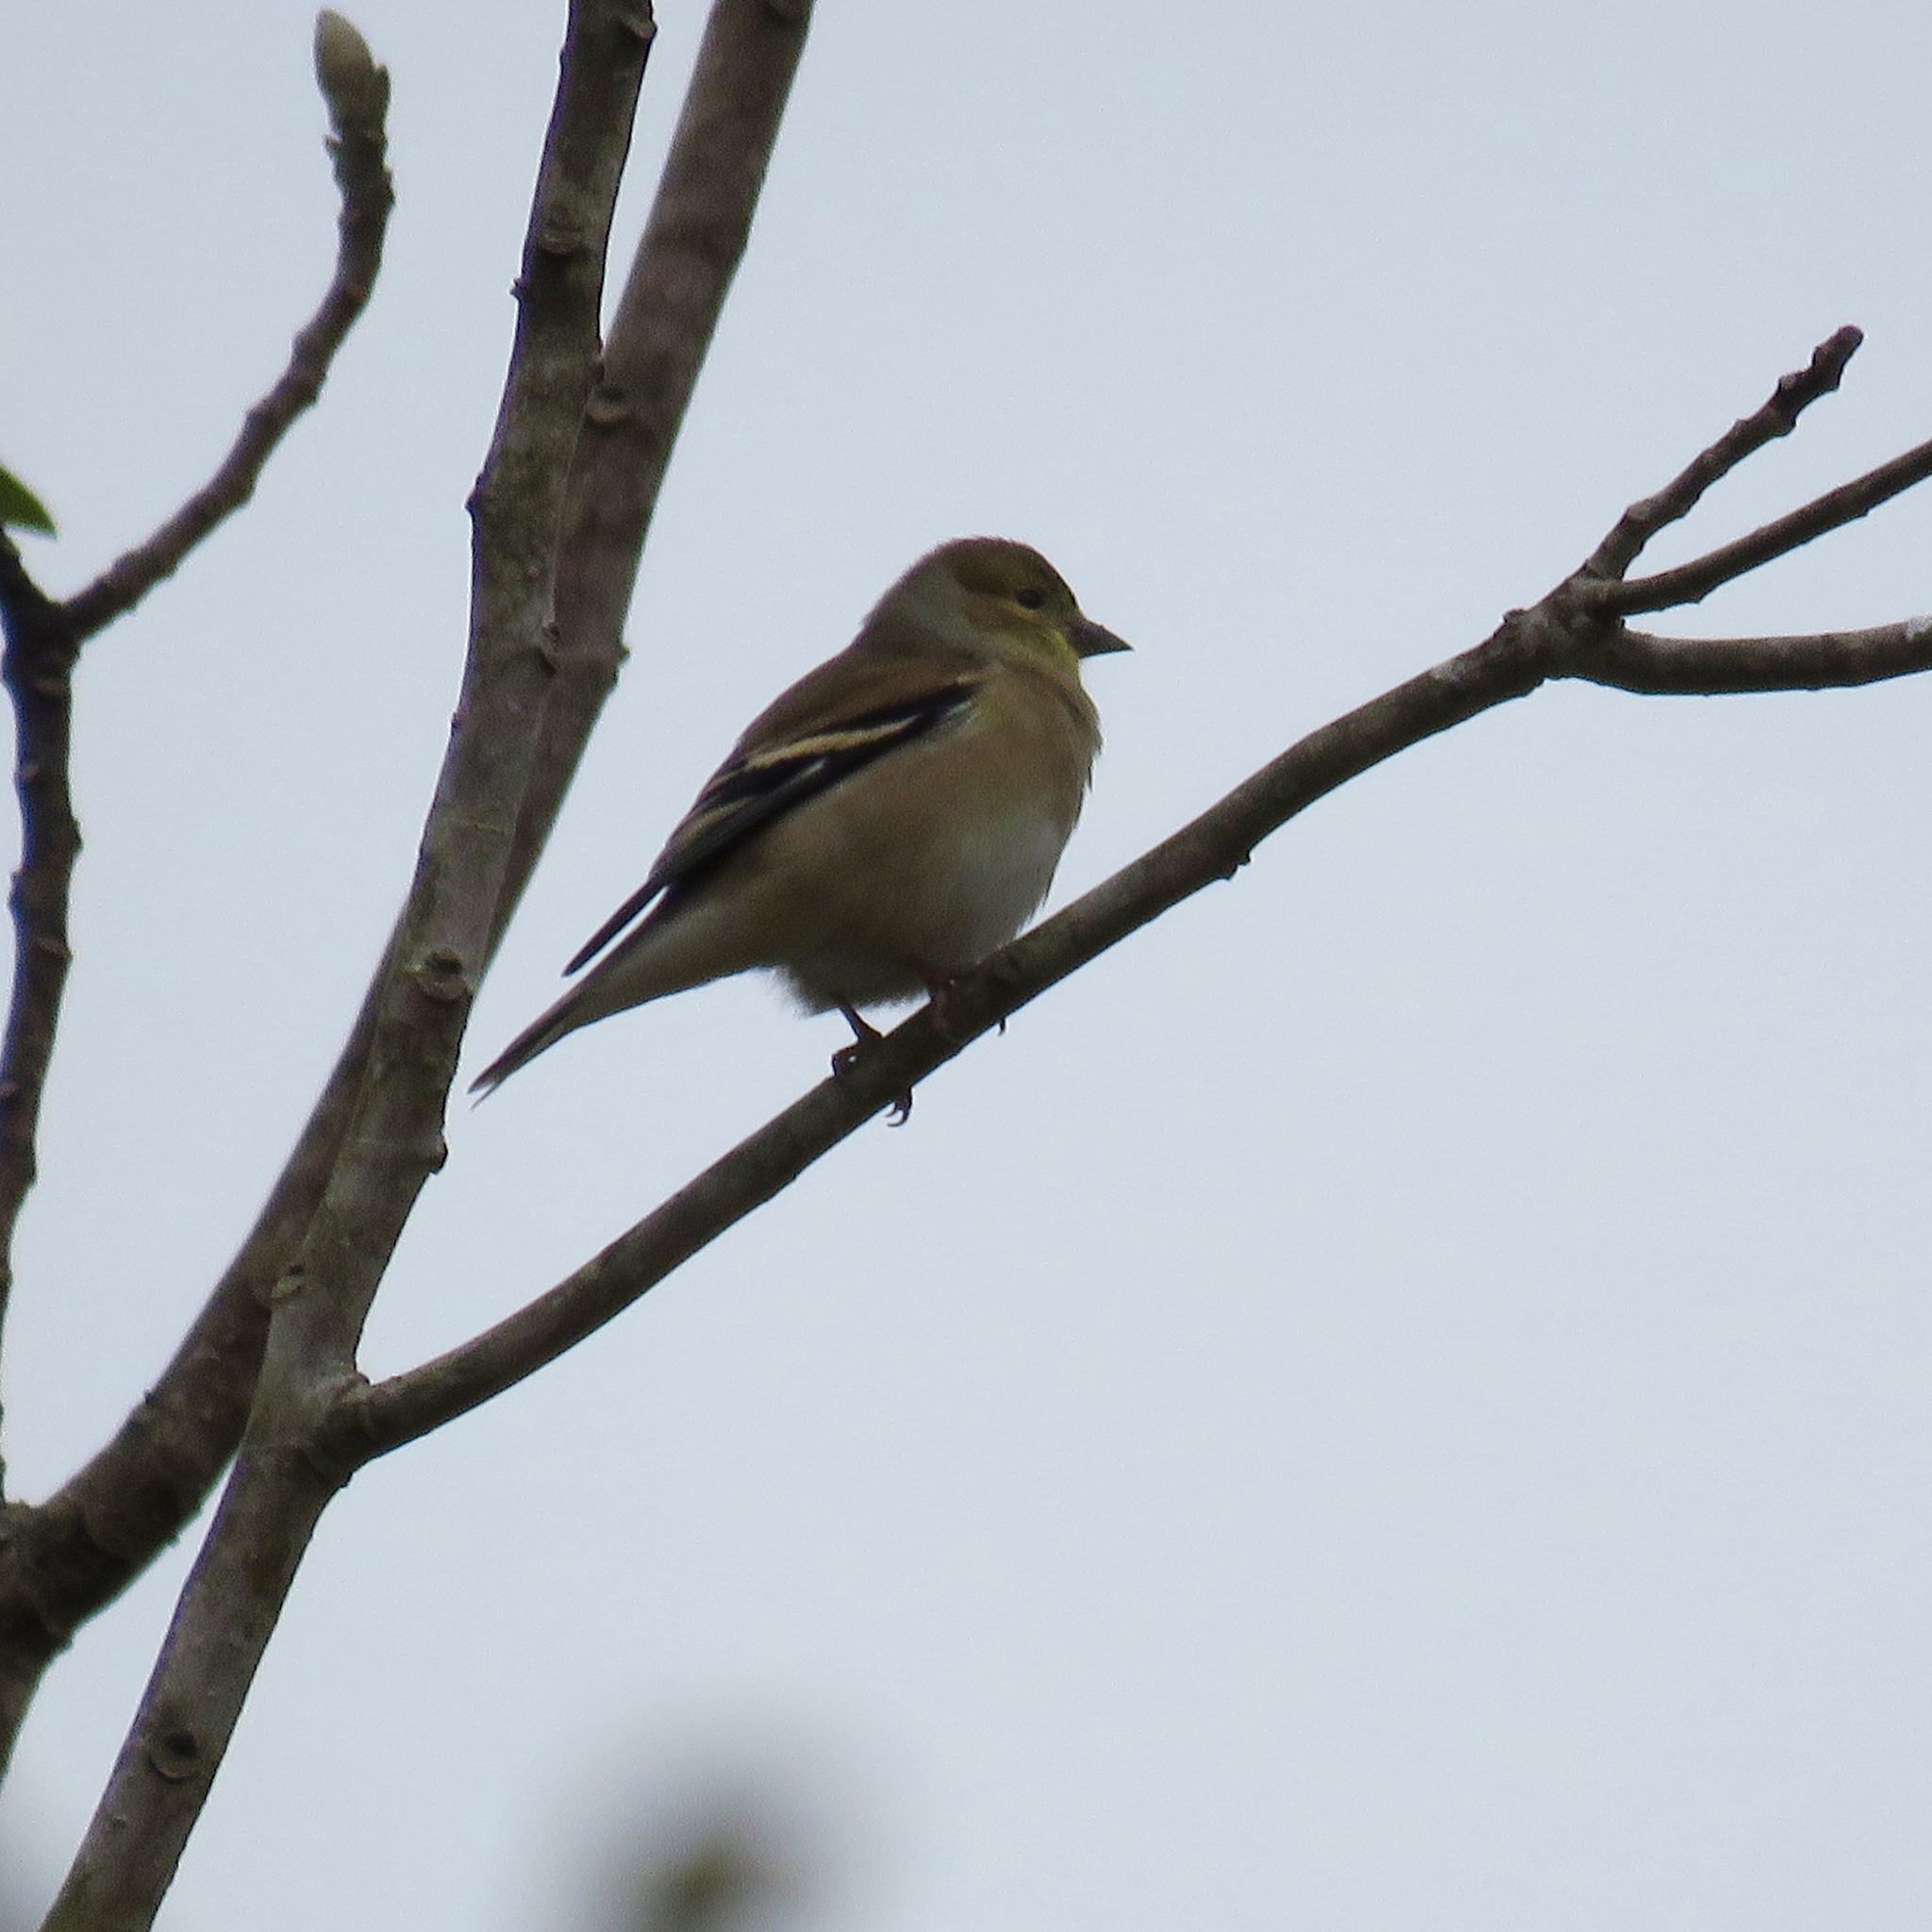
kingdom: Animalia
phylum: Chordata
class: Aves
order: Passeriformes
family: Fringillidae
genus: Spinus
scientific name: Spinus tristis
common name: American goldfinch
